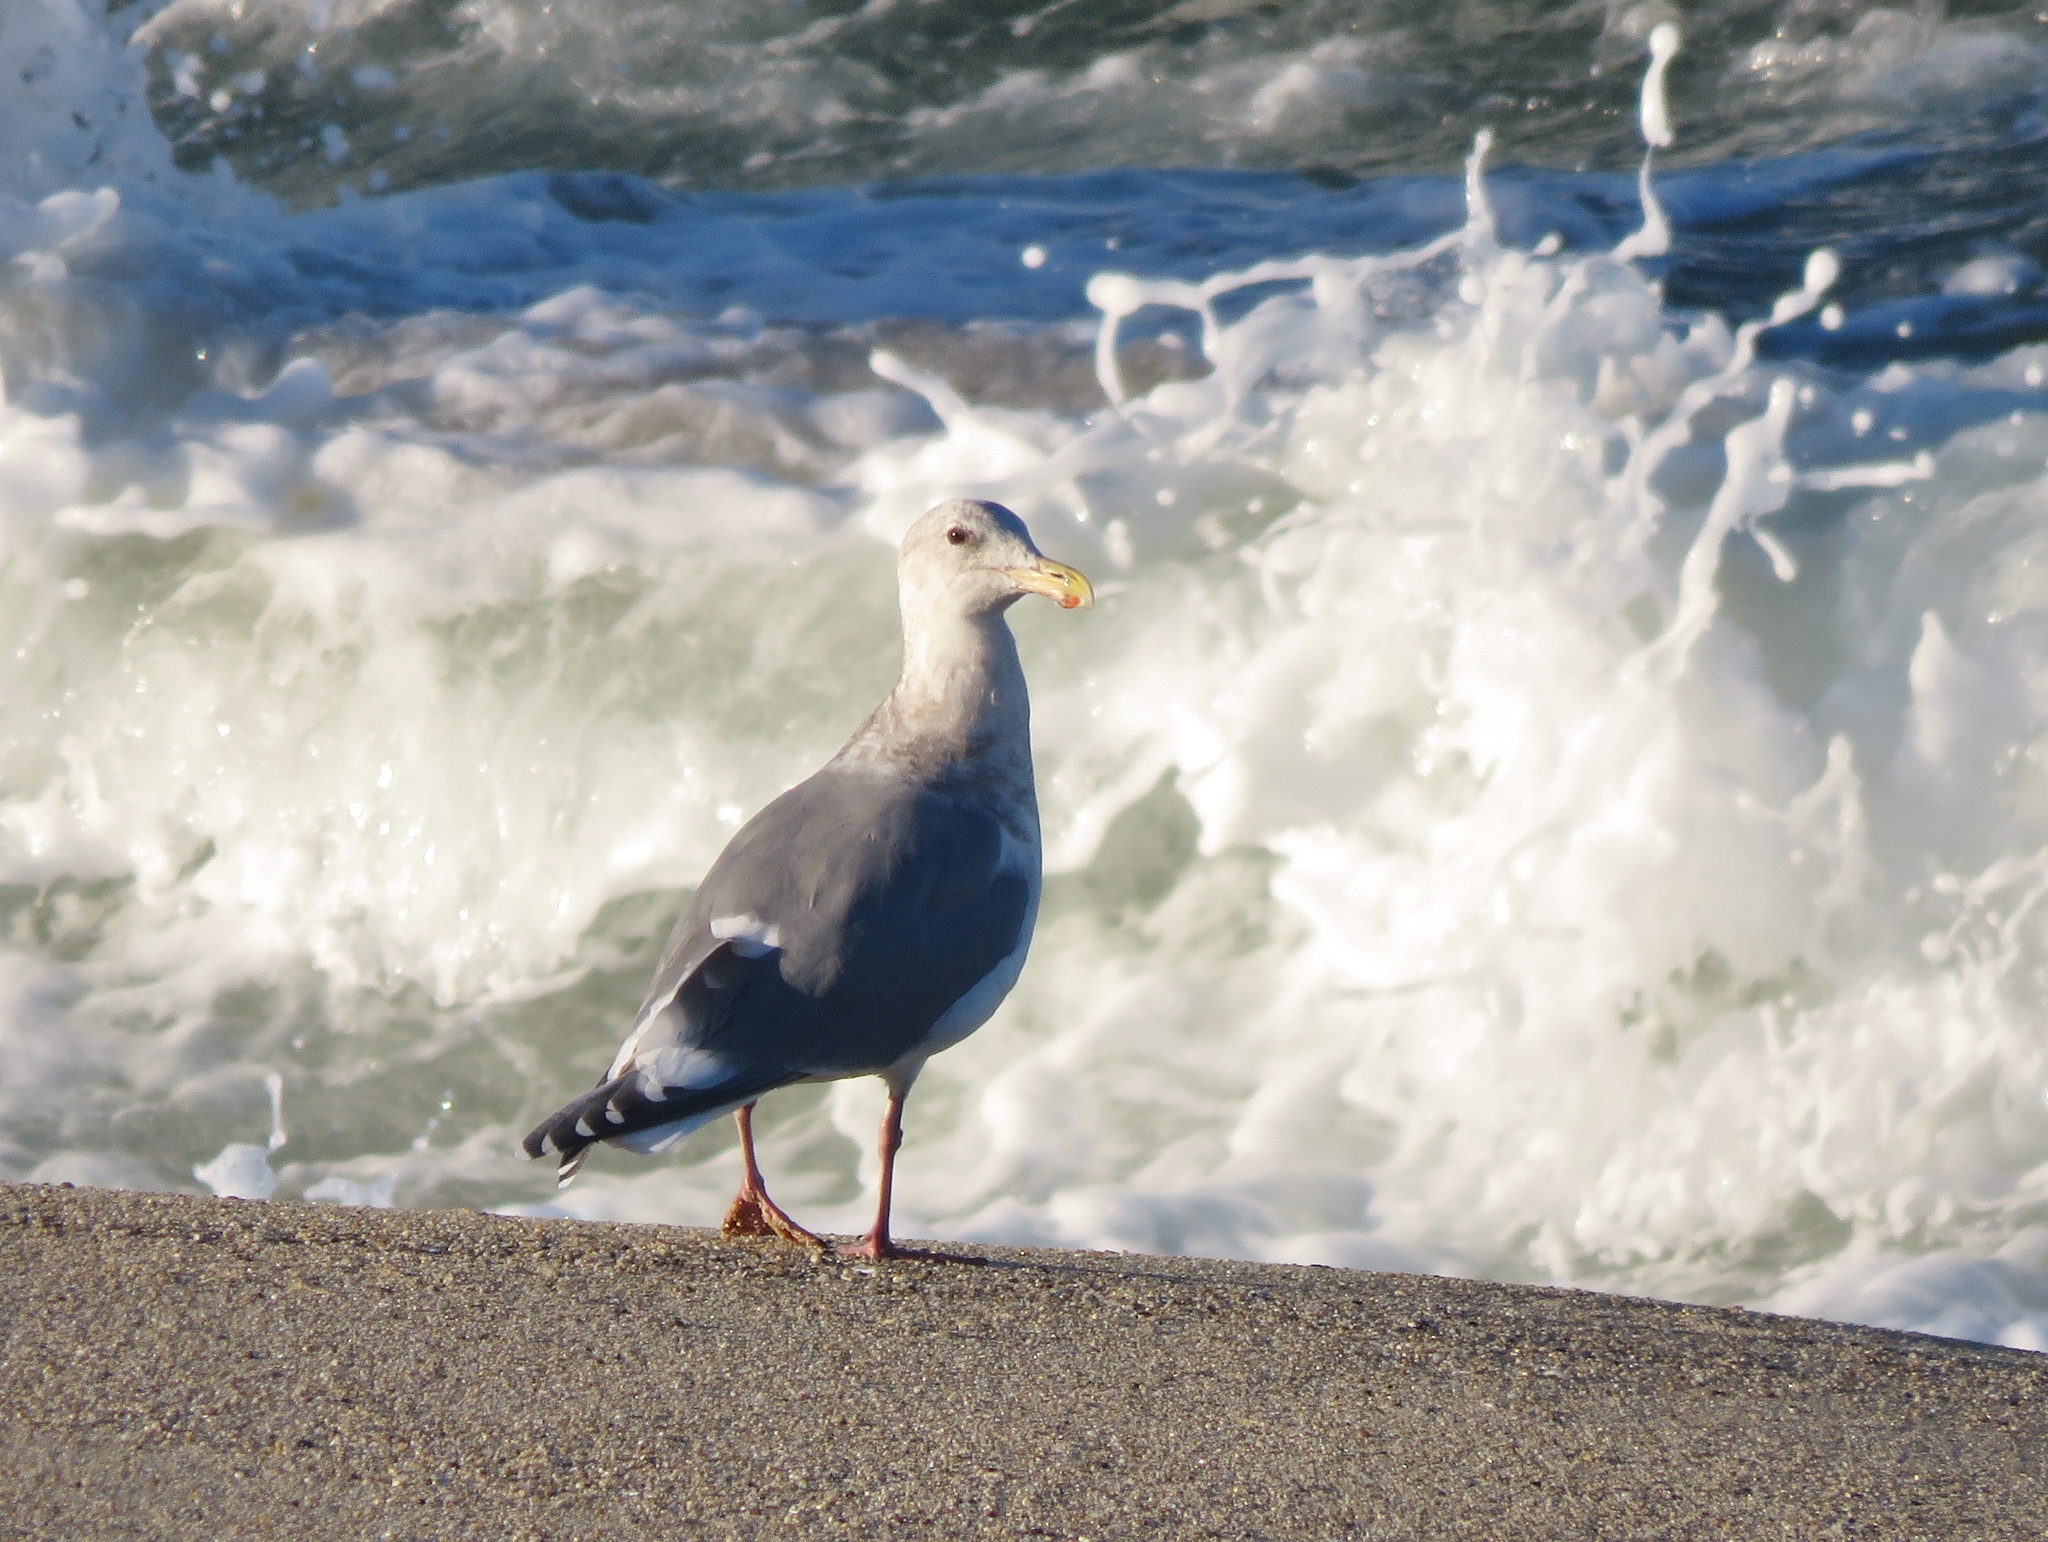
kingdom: Animalia
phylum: Chordata
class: Aves
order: Charadriiformes
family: Laridae
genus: Larus
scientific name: Larus
